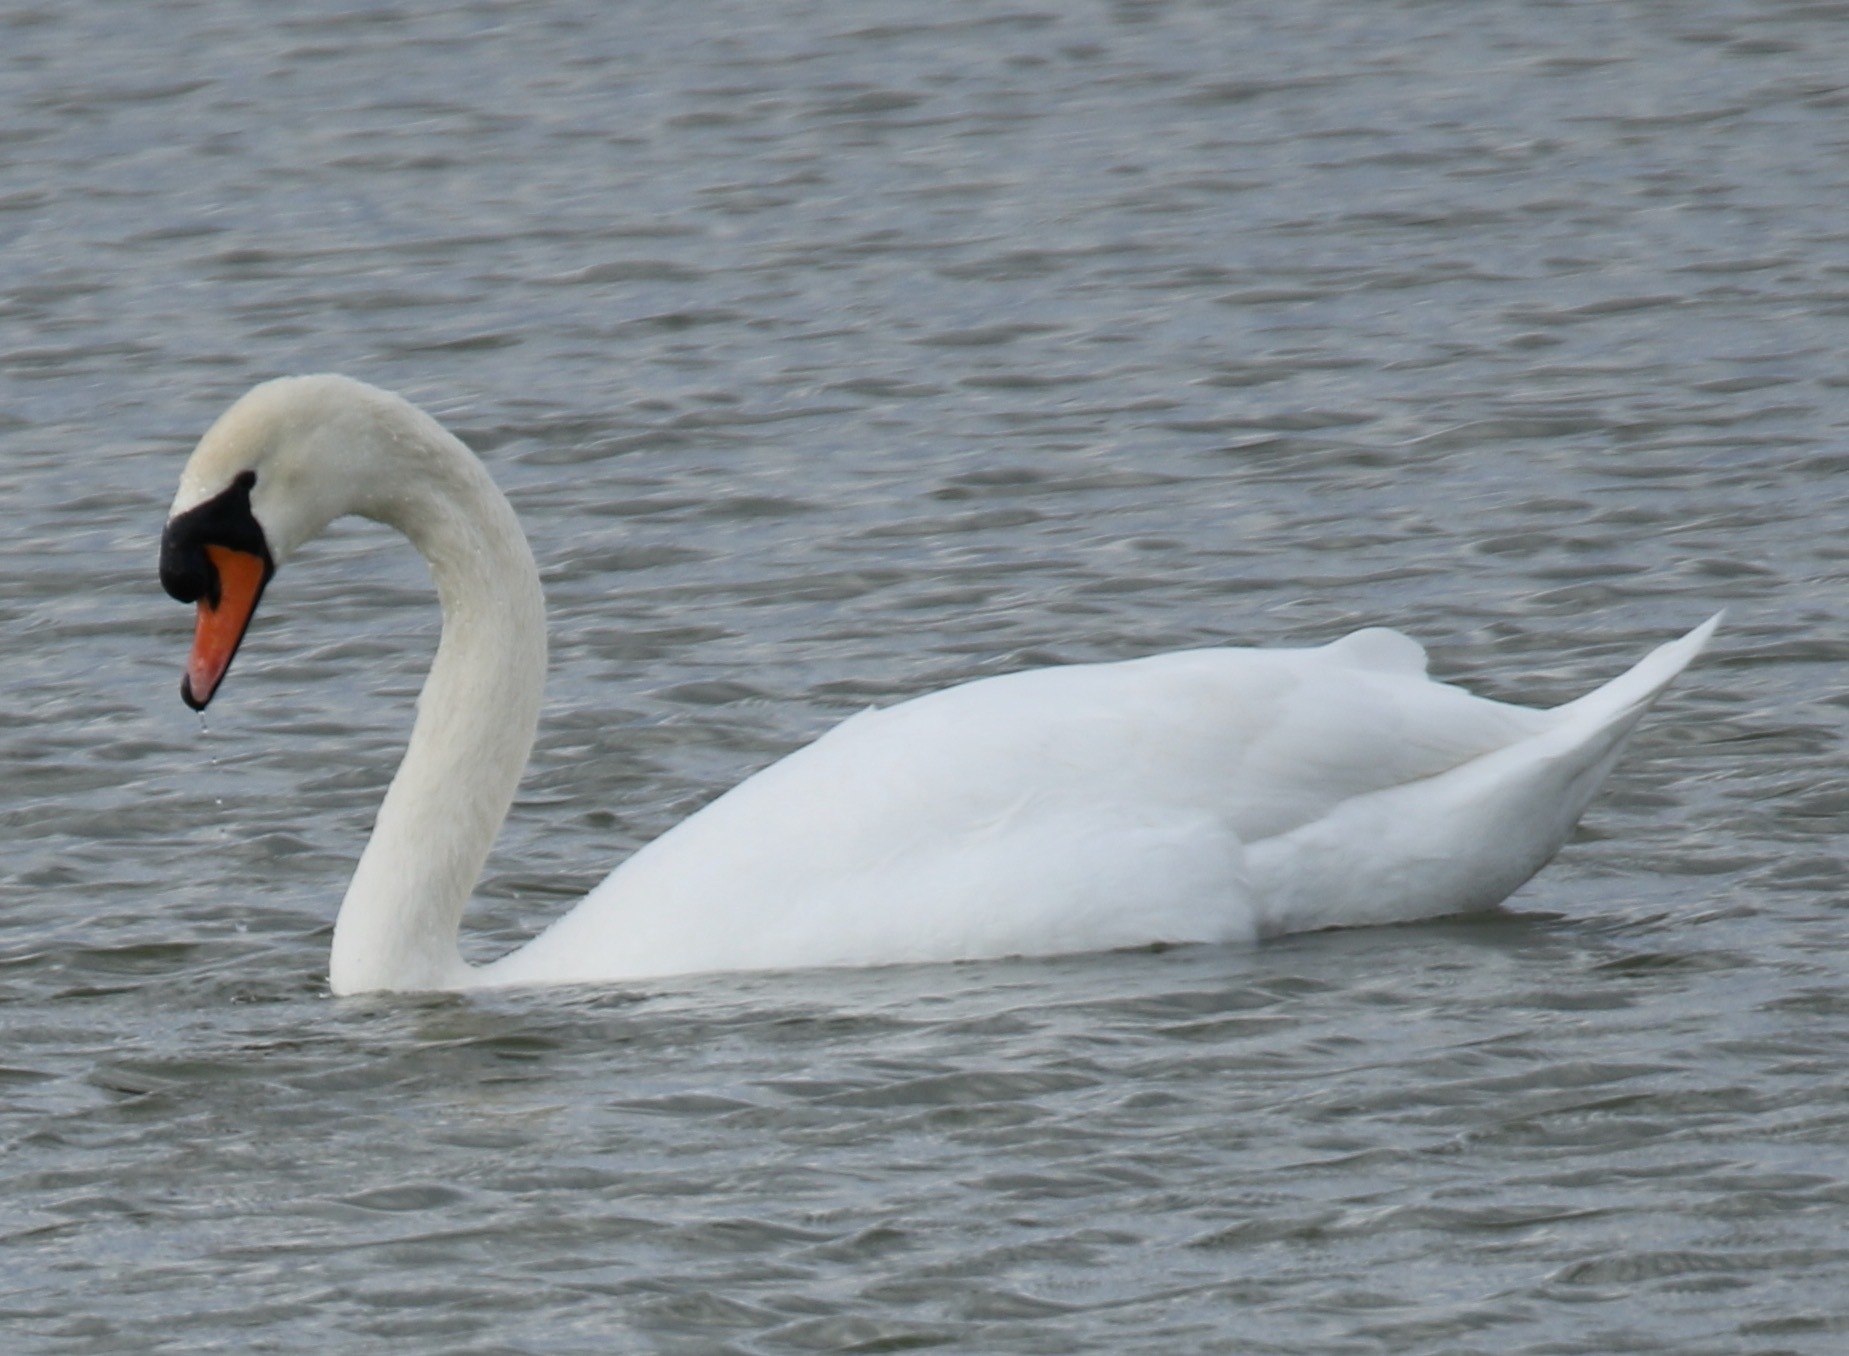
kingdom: Animalia
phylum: Chordata
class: Aves
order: Anseriformes
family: Anatidae
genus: Cygnus
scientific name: Cygnus olor
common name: Mute swan
